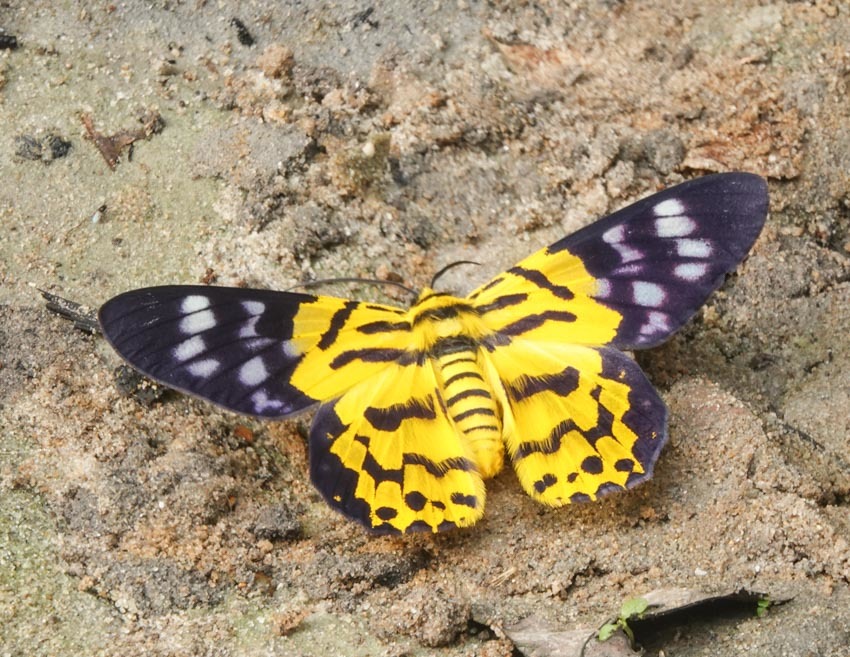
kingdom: Animalia
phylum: Arthropoda
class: Insecta
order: Lepidoptera
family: Geometridae
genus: Dysphania
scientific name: Dysphania militaris
